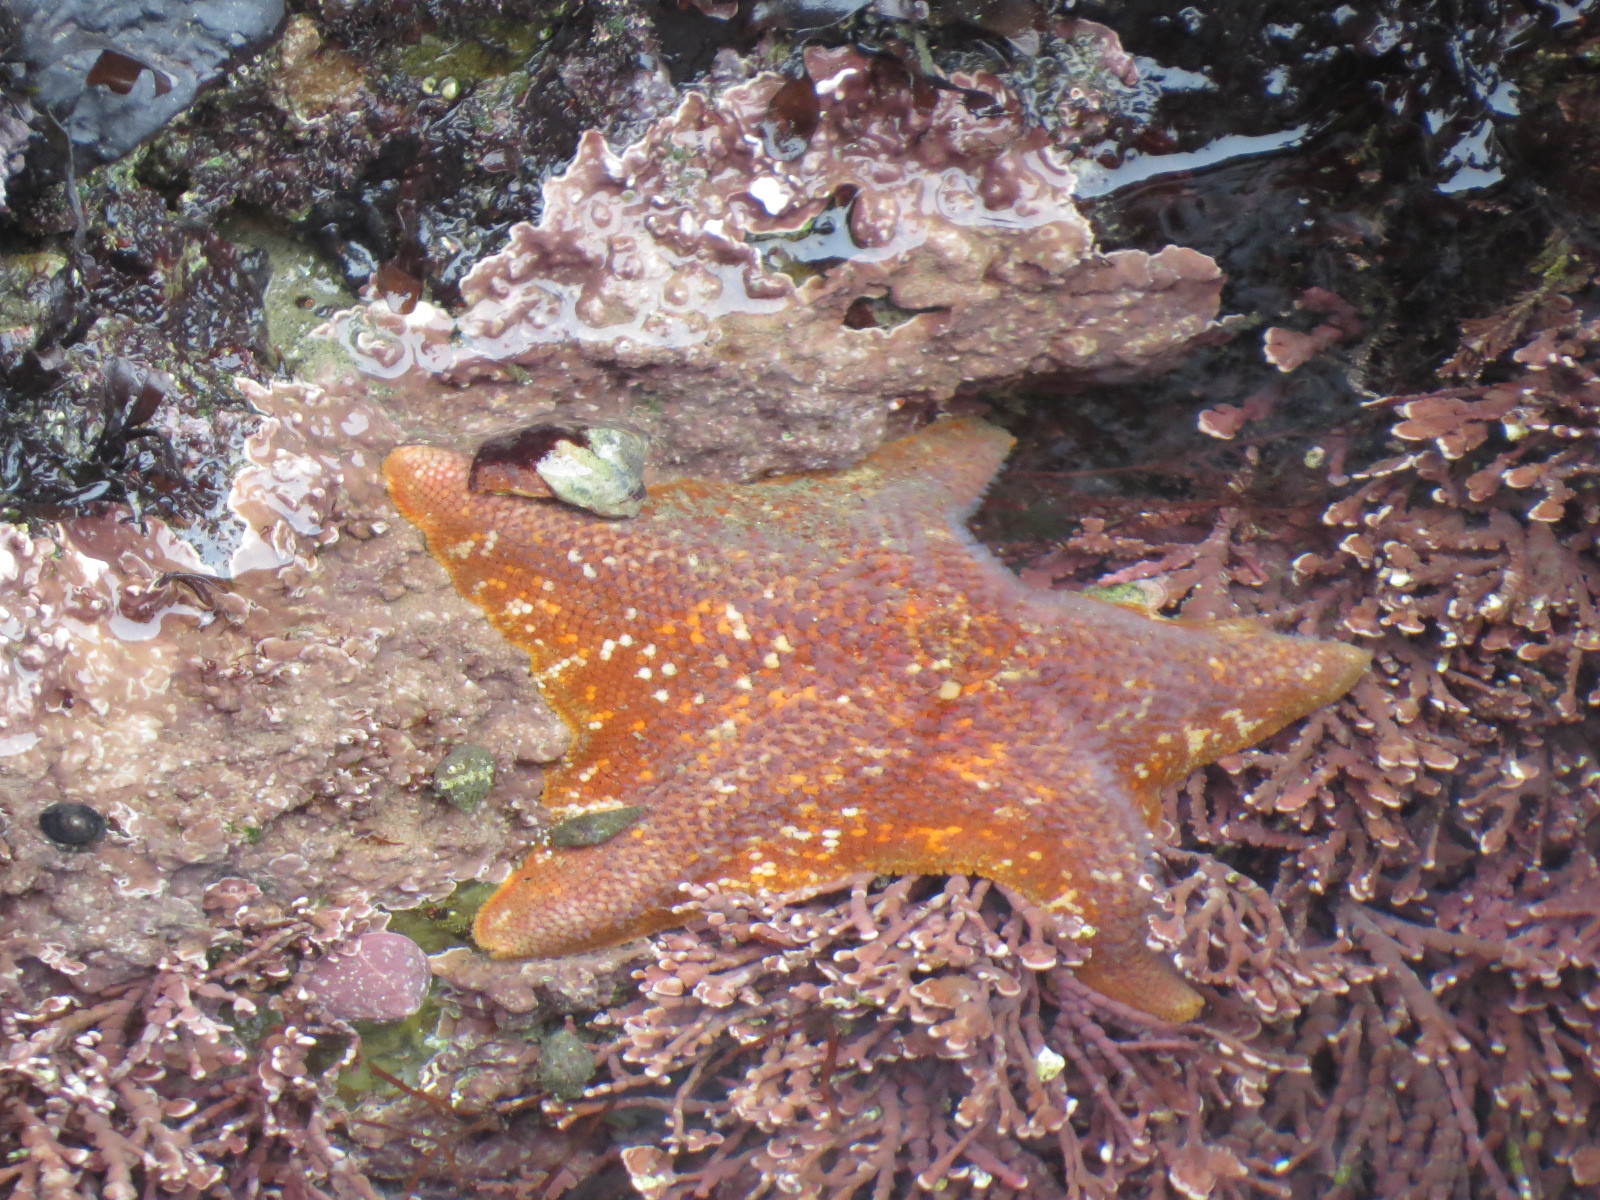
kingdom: Animalia
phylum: Echinodermata
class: Asteroidea
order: Valvatida
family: Asterinidae
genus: Patiria
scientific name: Patiria miniata
